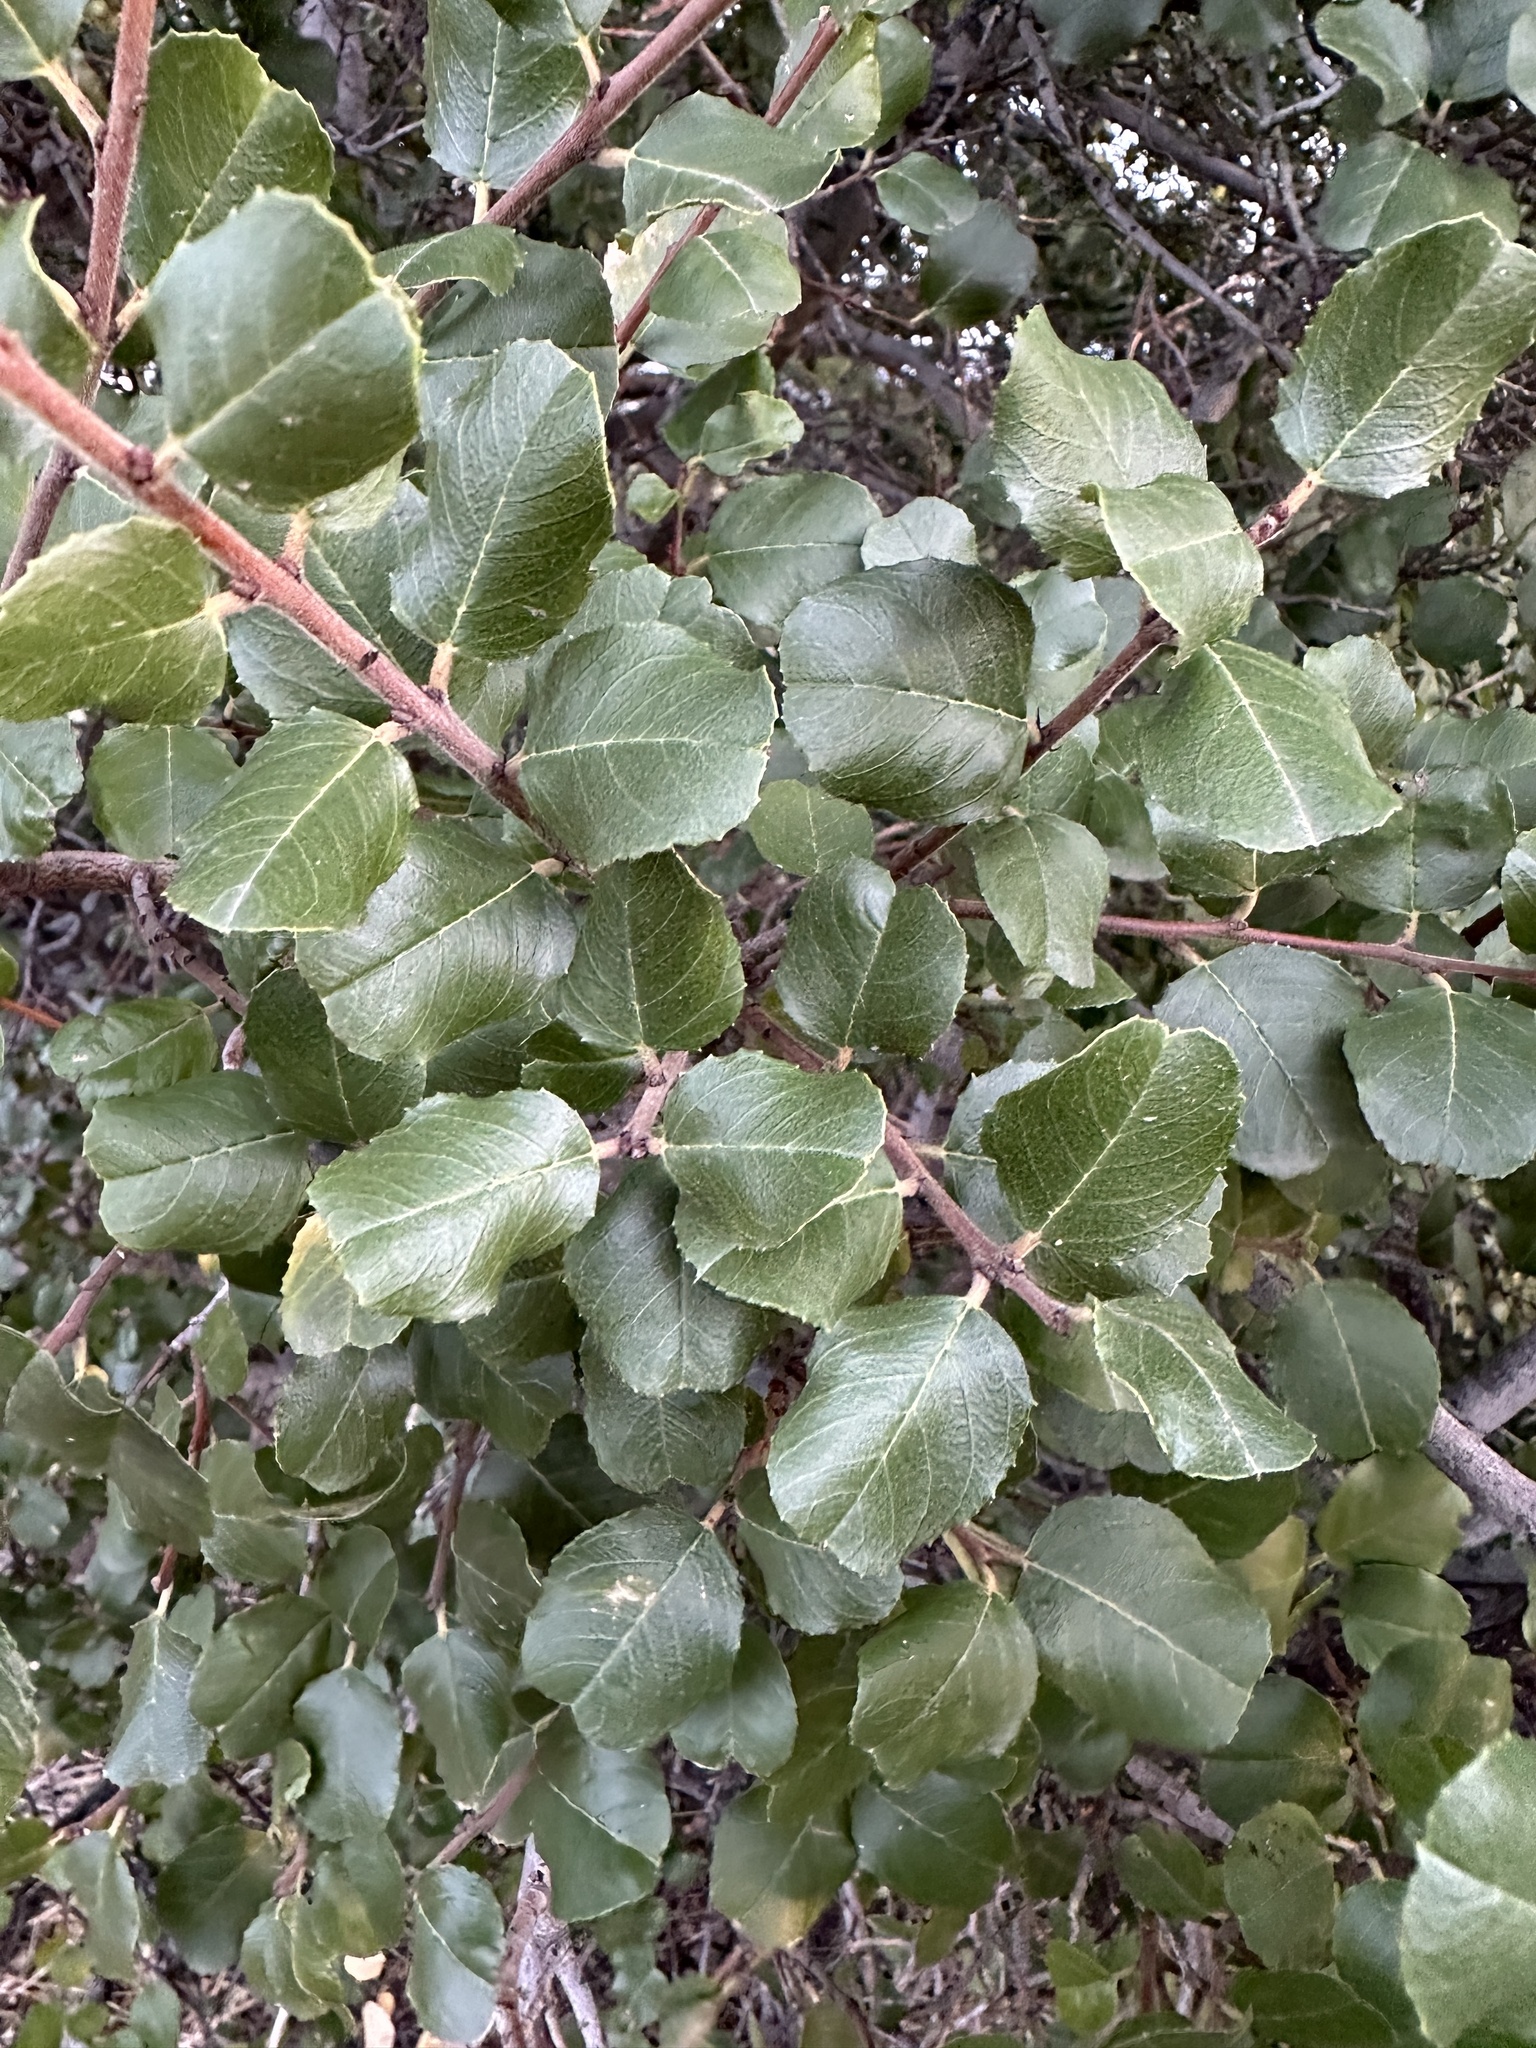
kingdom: Plantae
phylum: Tracheophyta
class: Magnoliopsida
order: Rosales
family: Rhamnaceae
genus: Endotropis
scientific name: Endotropis crocea
